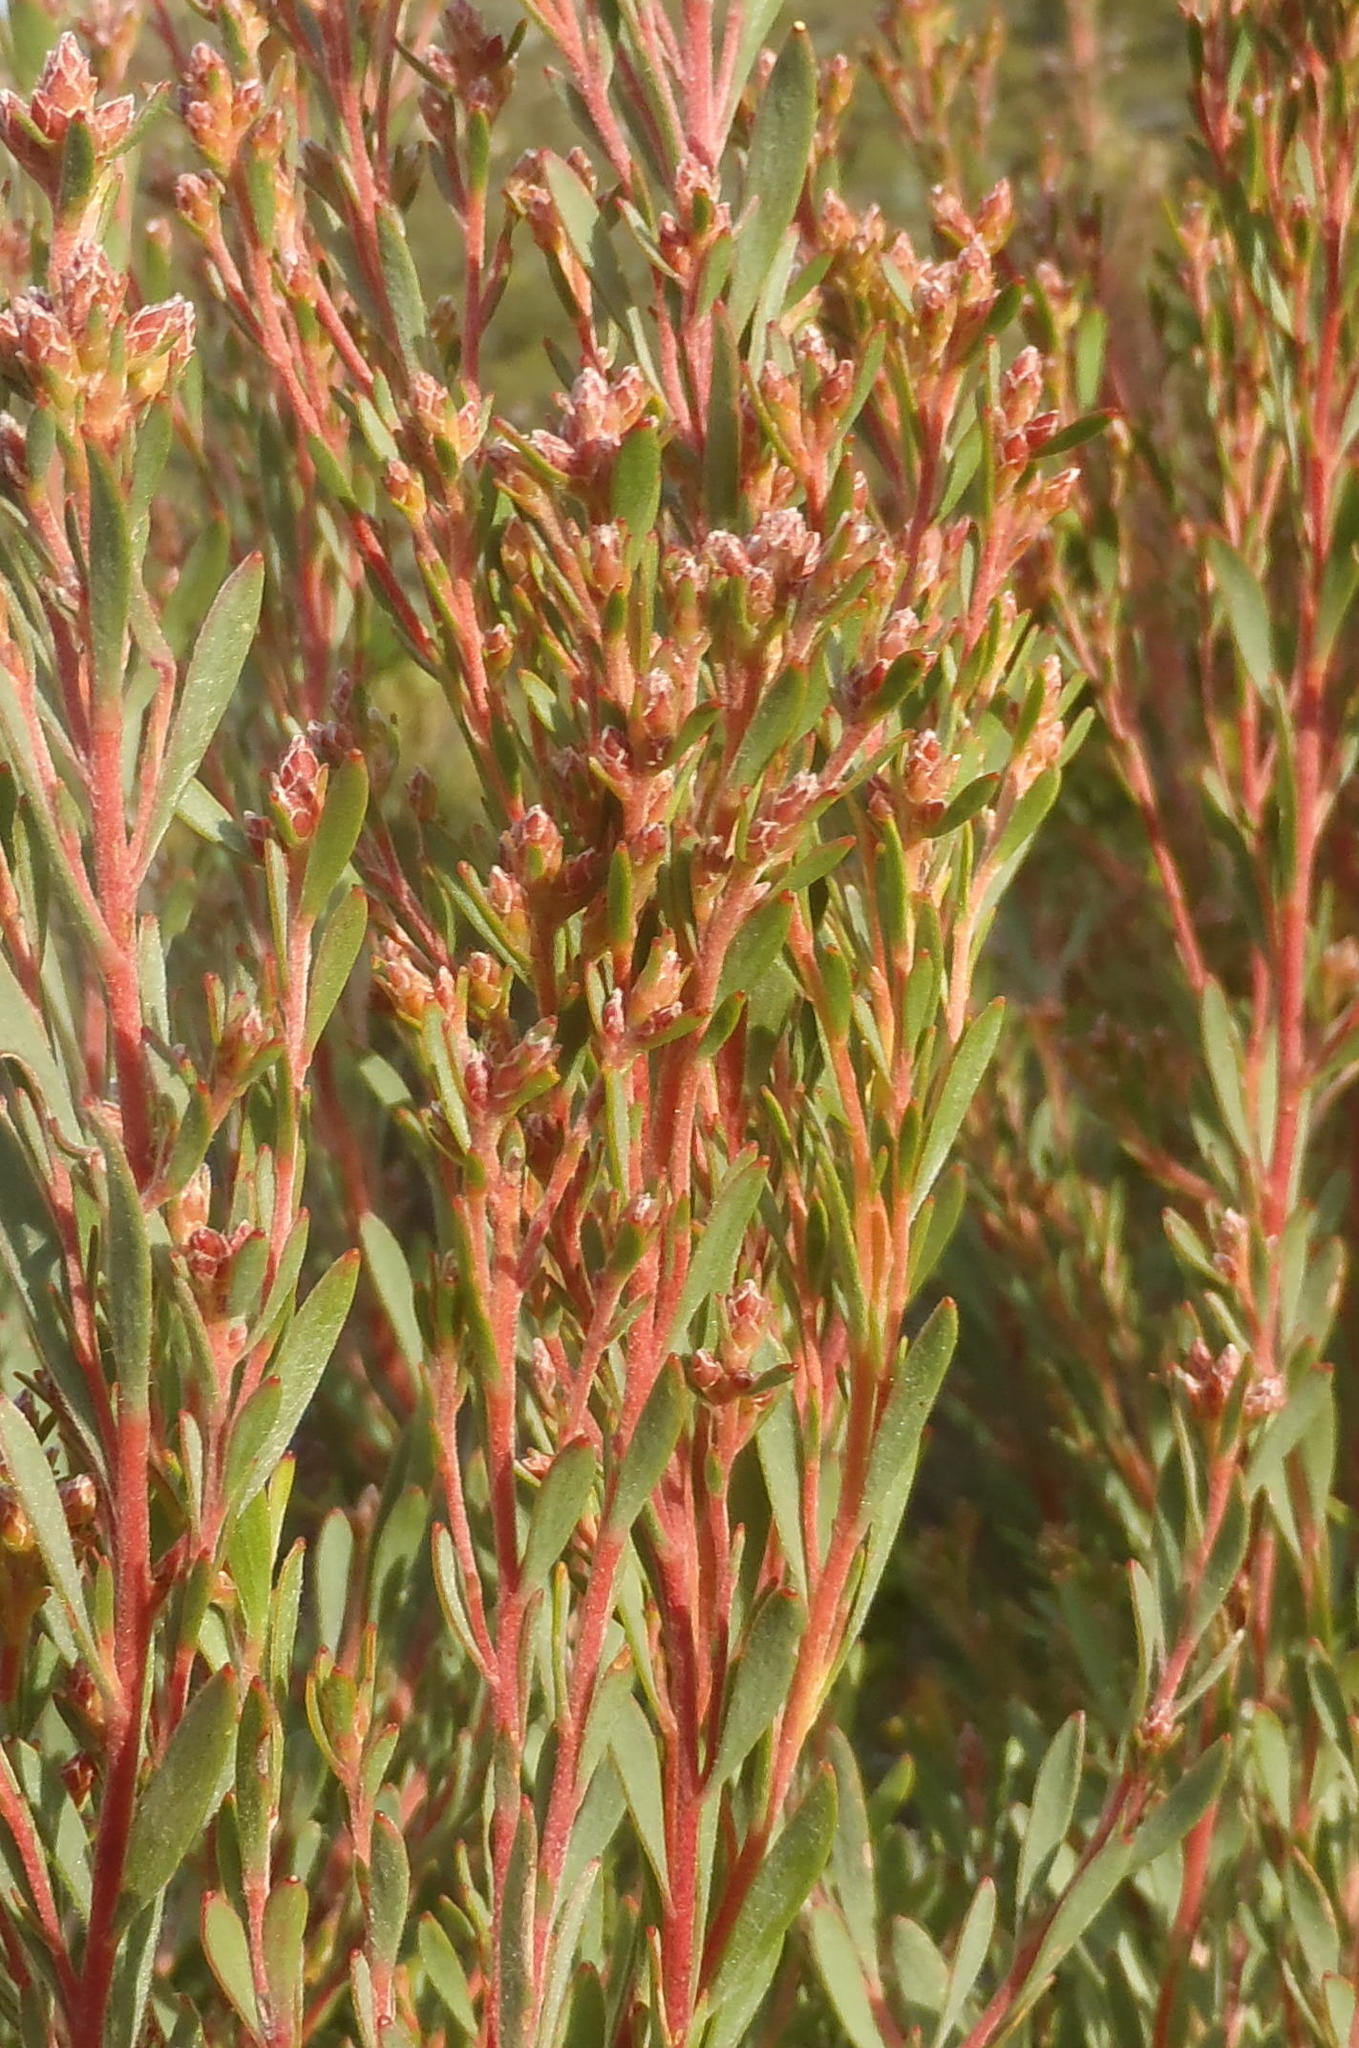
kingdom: Plantae
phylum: Tracheophyta
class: Magnoliopsida
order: Proteales
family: Proteaceae
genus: Leucadendron
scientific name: Leucadendron rubrum
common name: Spinning top
